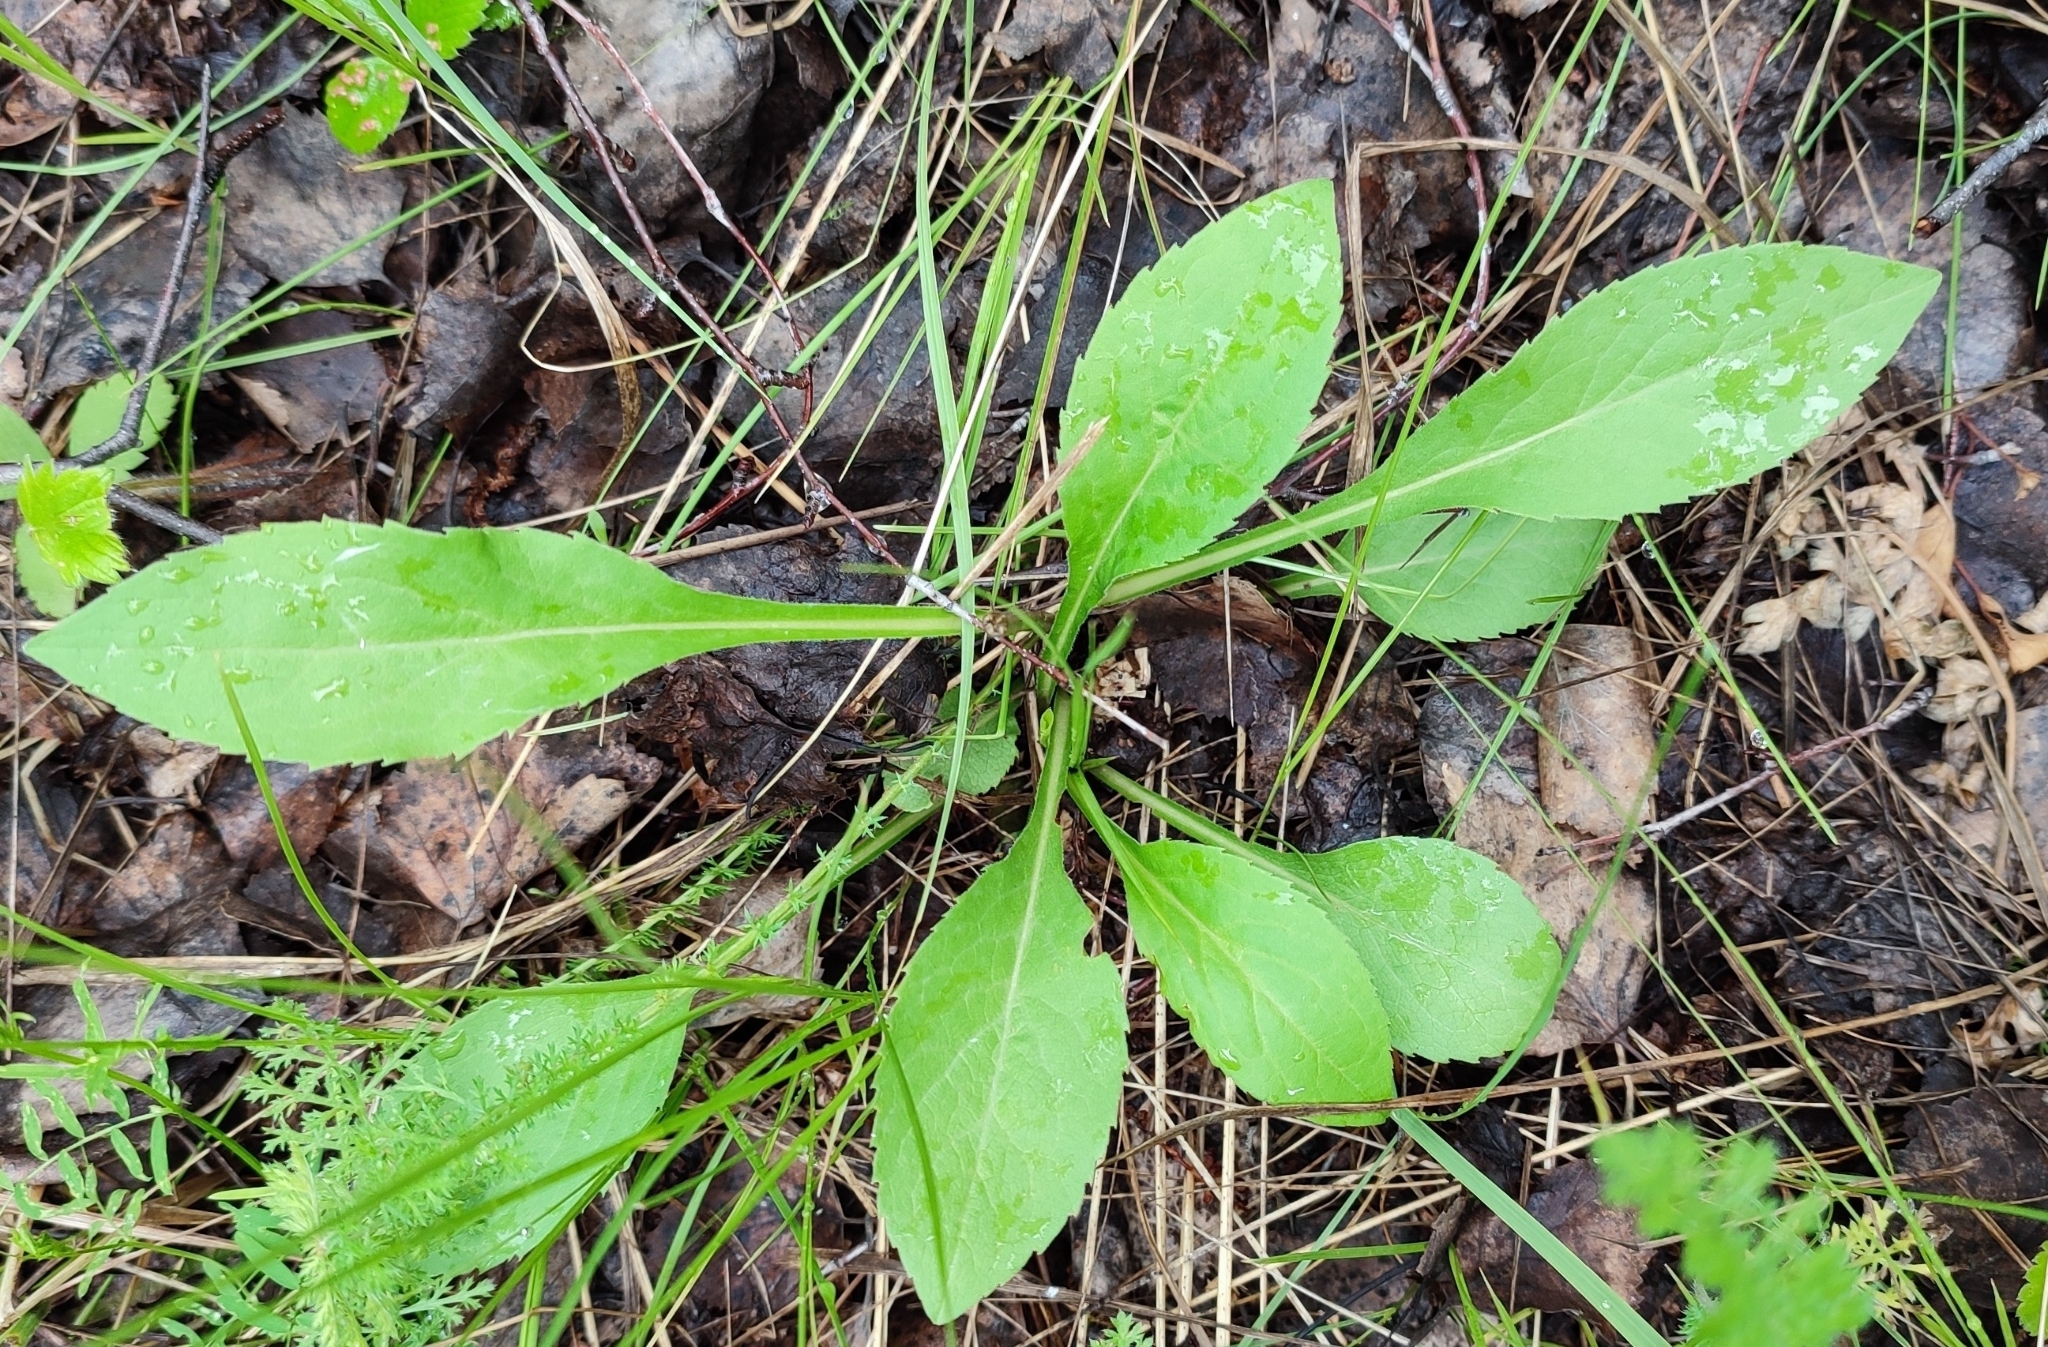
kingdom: Plantae
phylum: Tracheophyta
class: Magnoliopsida
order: Asterales
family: Asteraceae
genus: Solidago
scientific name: Solidago virgaurea
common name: Goldenrod
